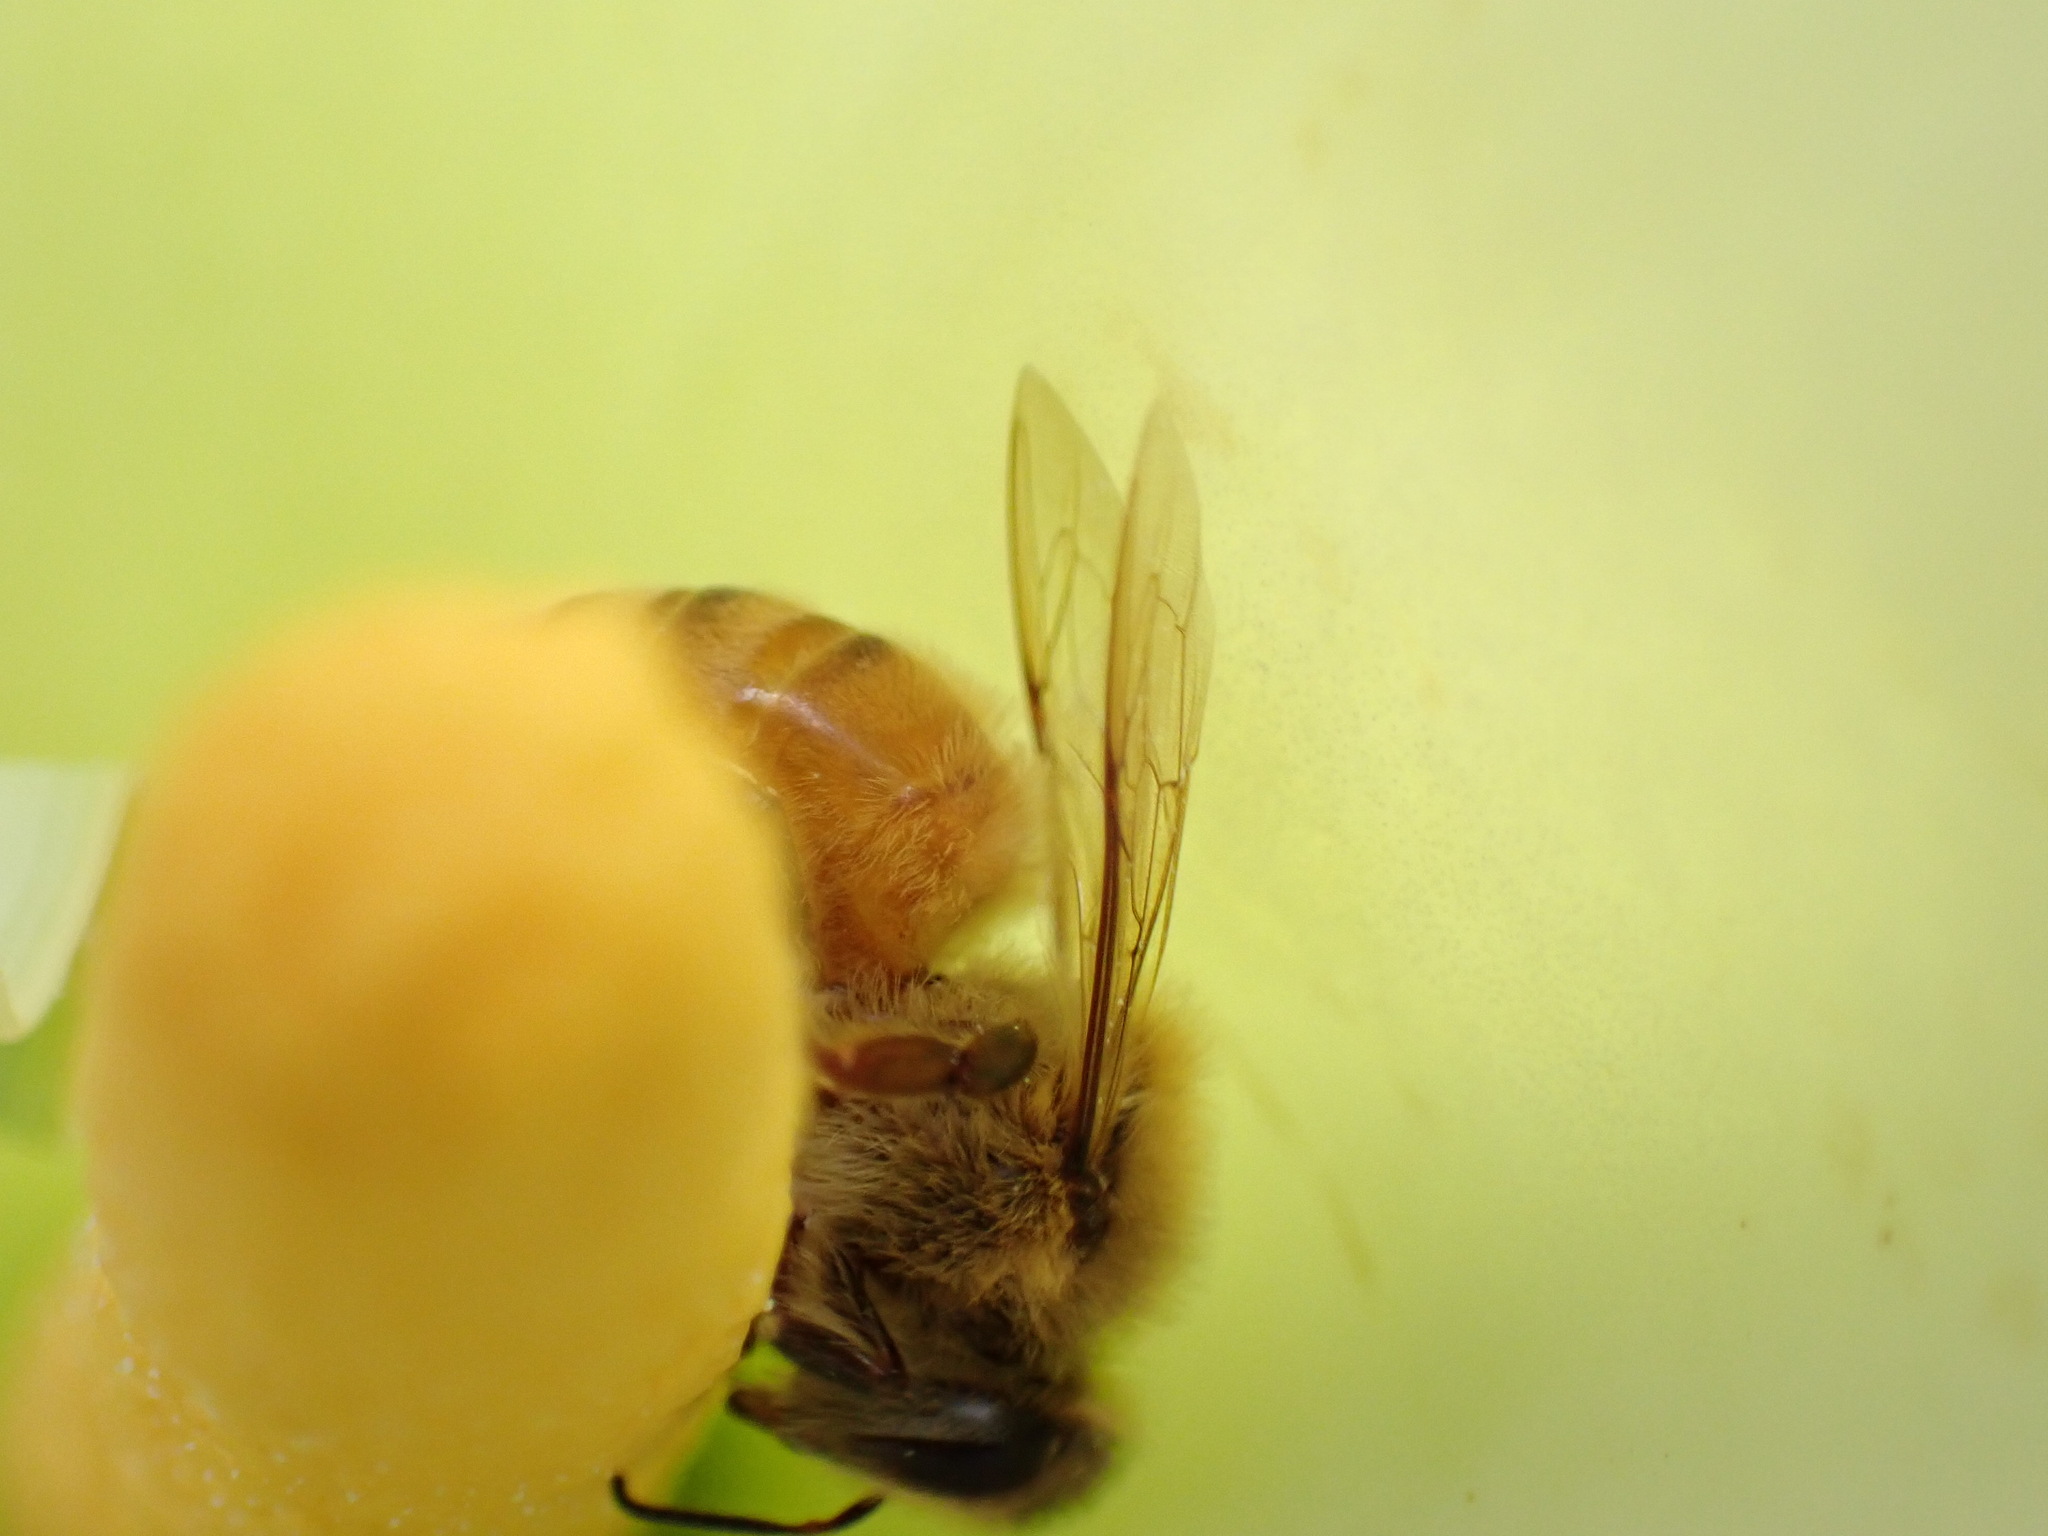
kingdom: Animalia
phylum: Arthropoda
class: Insecta
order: Hymenoptera
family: Apidae
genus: Apis
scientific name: Apis mellifera
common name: Honey bee
